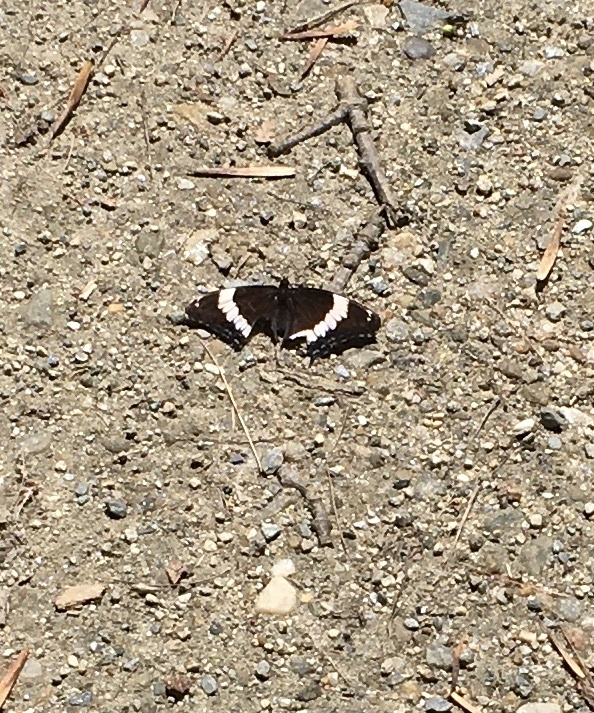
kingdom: Animalia
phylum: Arthropoda
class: Insecta
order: Lepidoptera
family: Nymphalidae
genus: Limenitis
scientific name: Limenitis arthemis
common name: Red-spotted admiral
